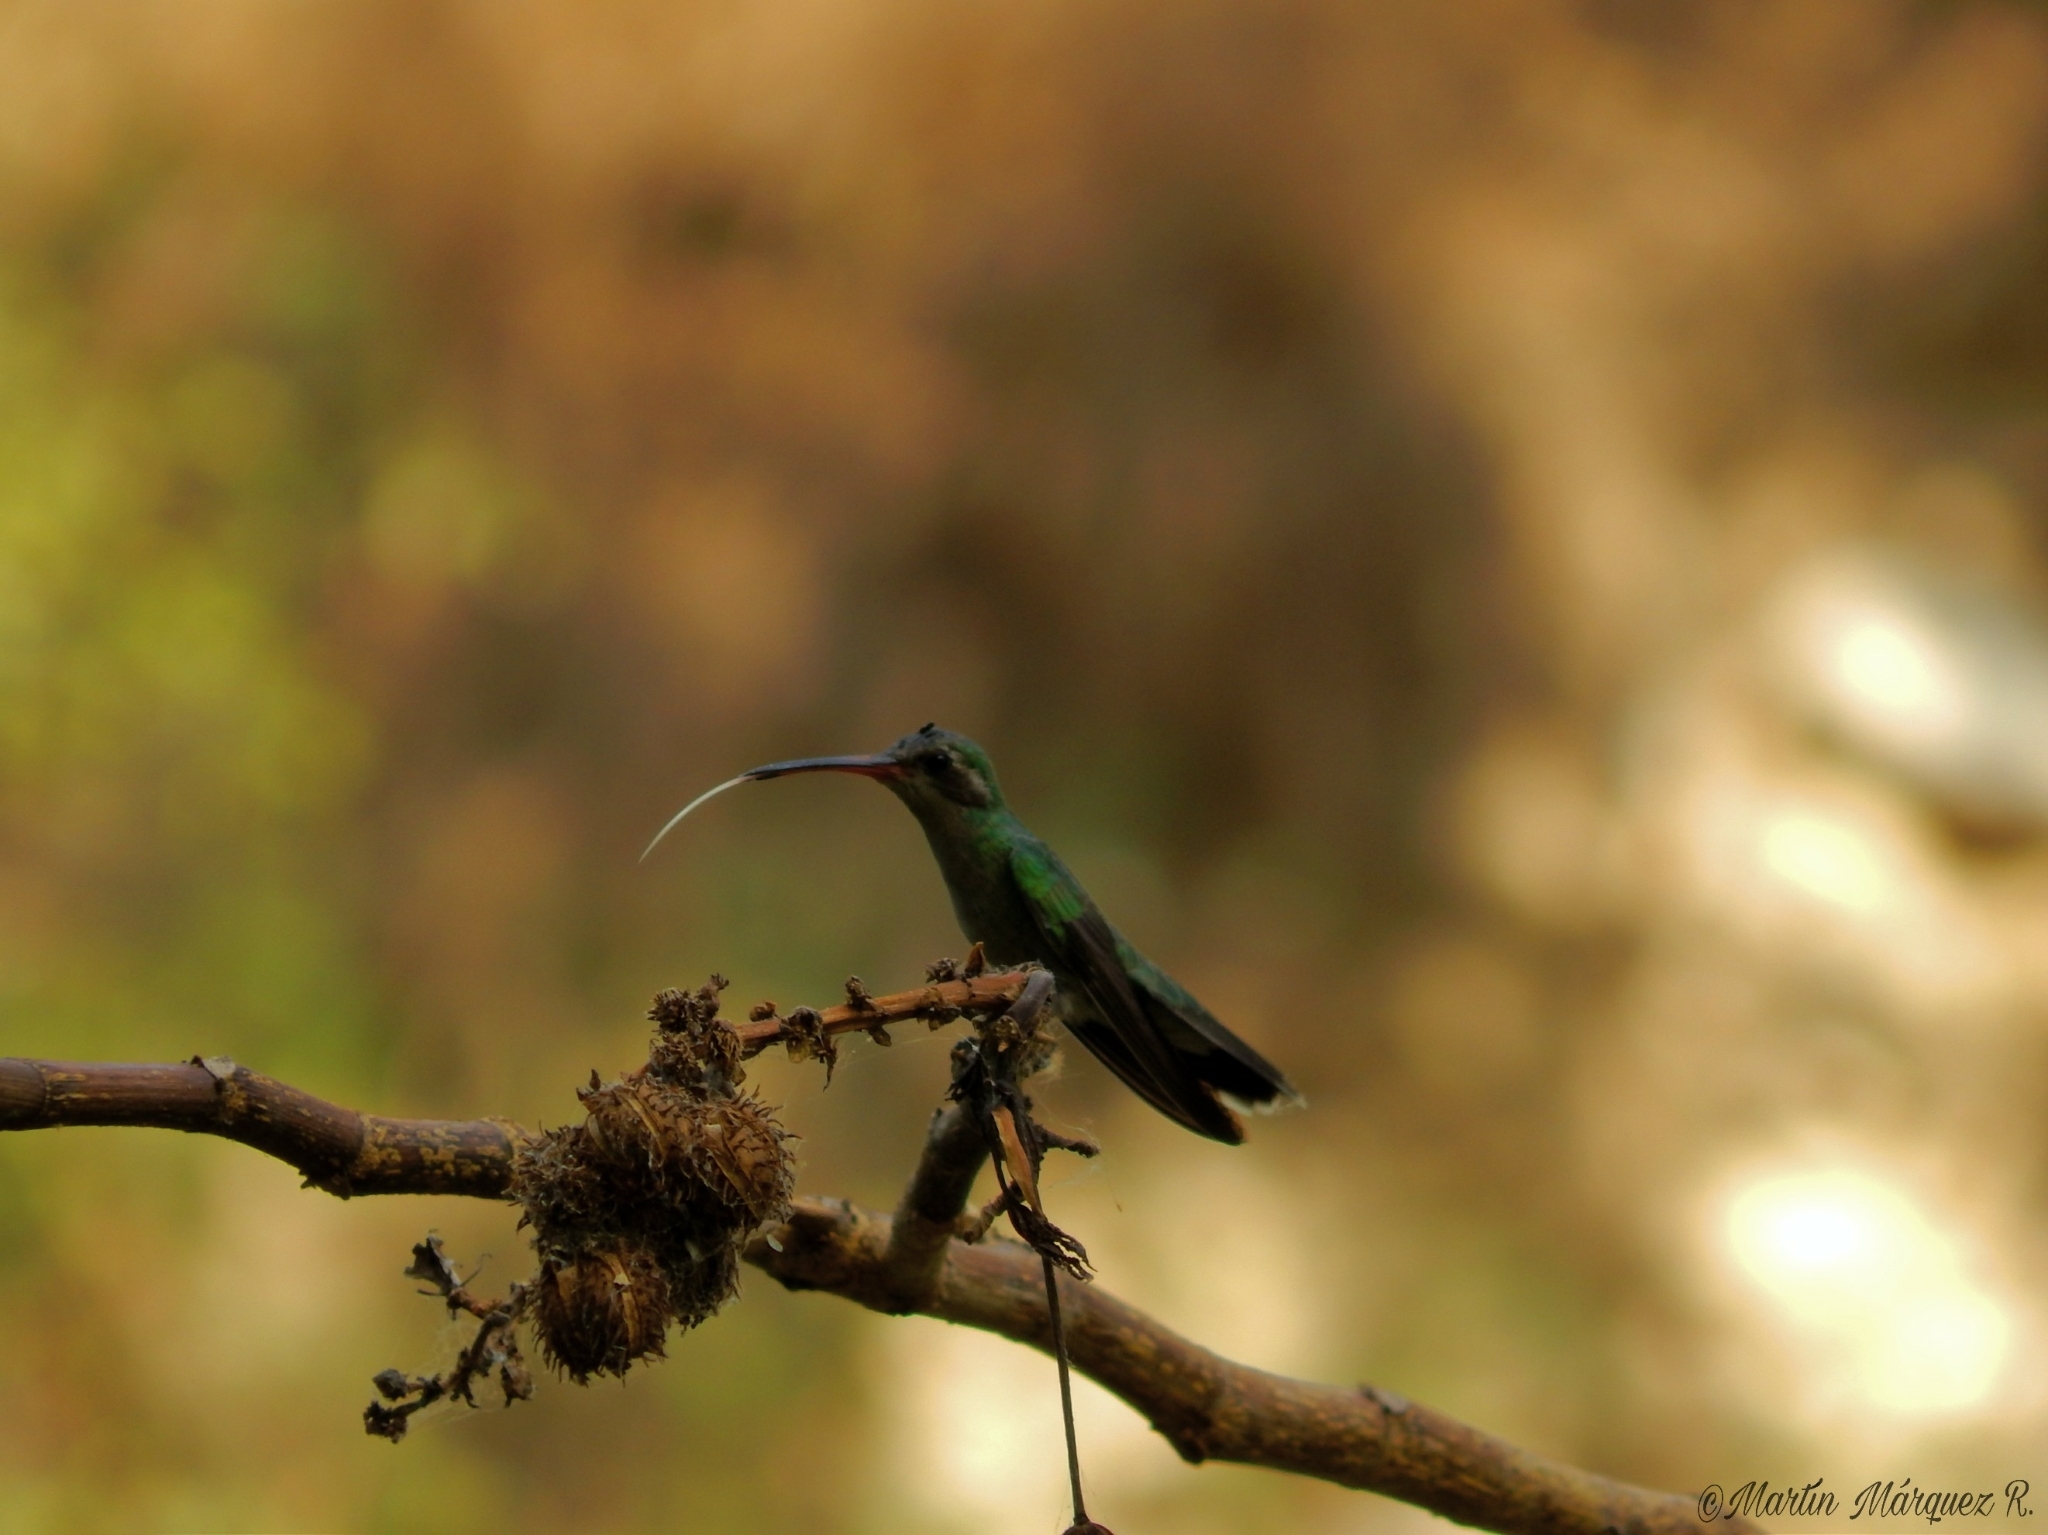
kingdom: Animalia
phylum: Chordata
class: Aves
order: Apodiformes
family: Trochilidae
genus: Cynanthus
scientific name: Cynanthus latirostris
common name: Broad-billed hummingbird
